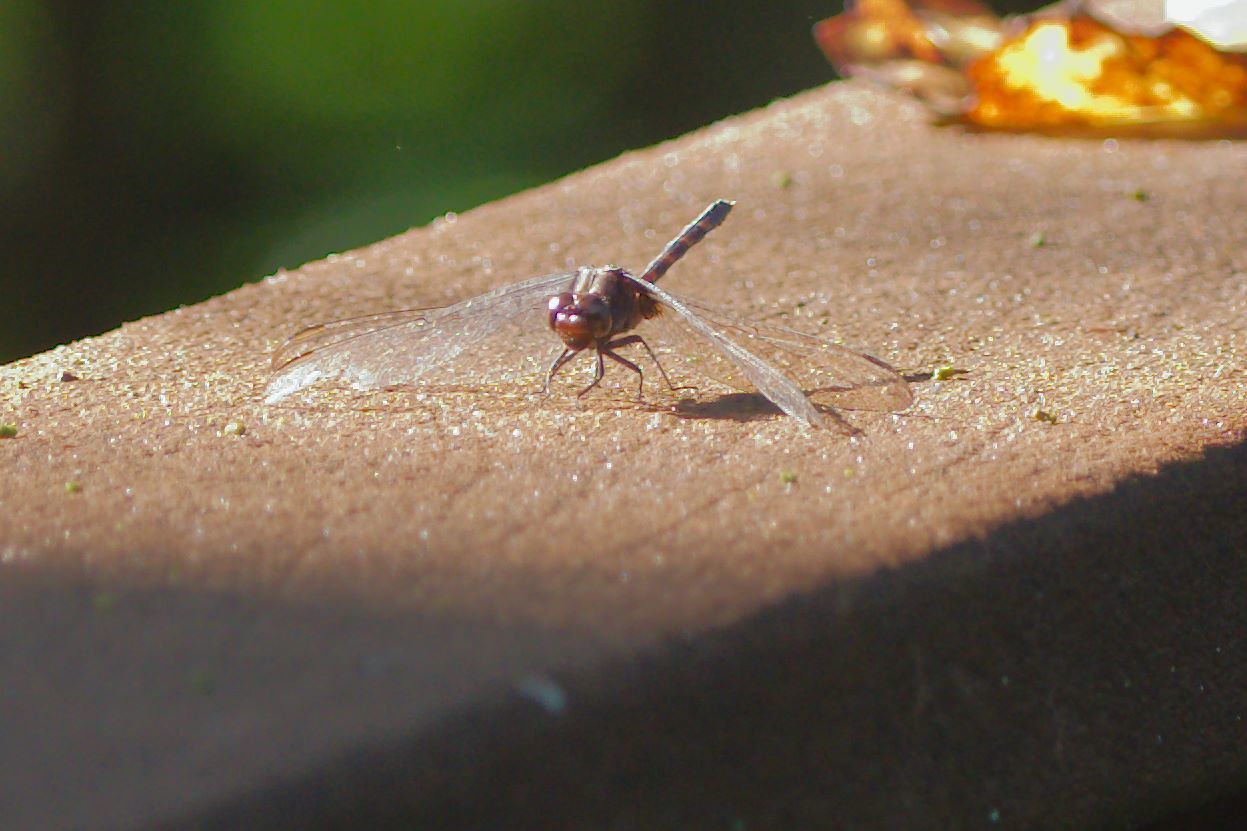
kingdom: Animalia
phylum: Arthropoda
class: Insecta
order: Odonata
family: Libellulidae
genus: Erythemis
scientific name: Erythemis plebeja
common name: Pin-tailed pondhawk
